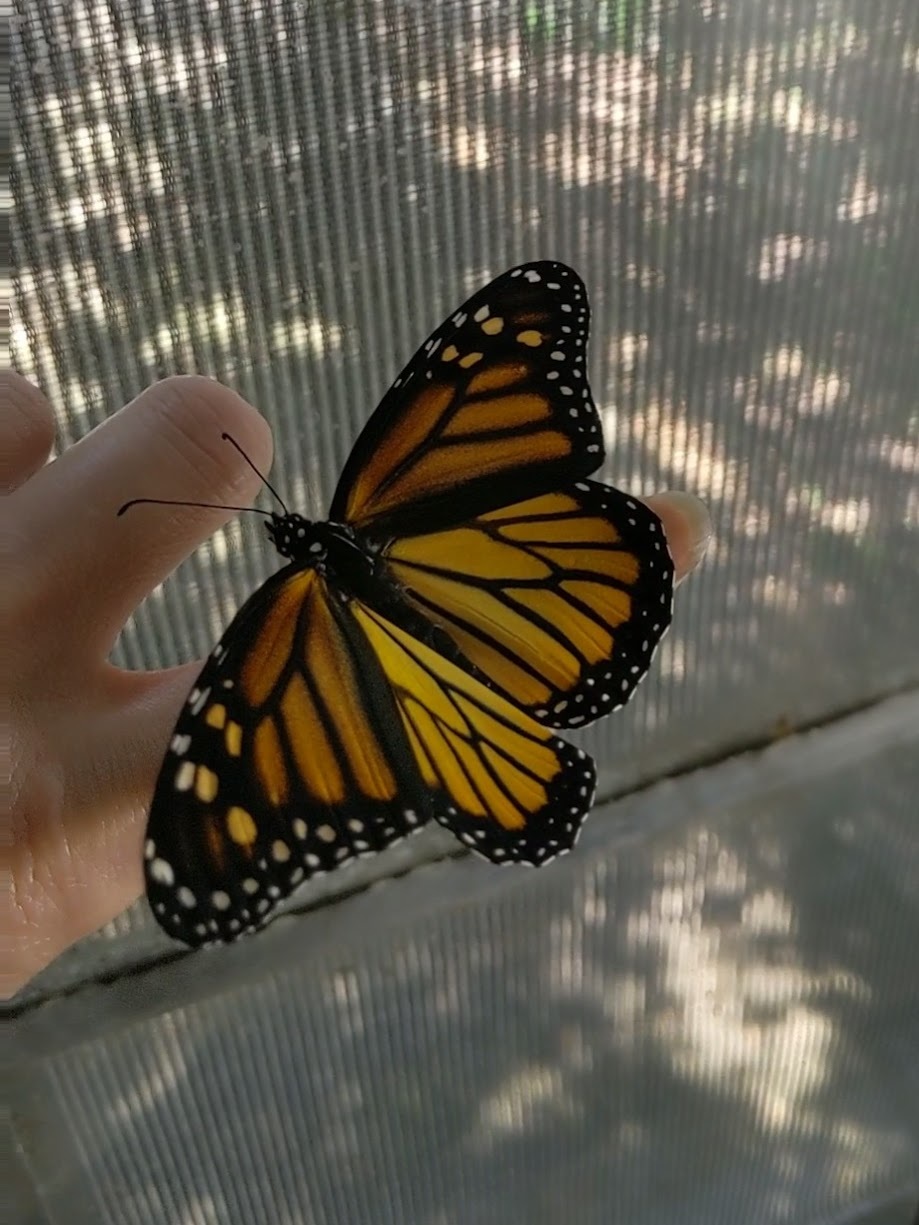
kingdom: Animalia
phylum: Arthropoda
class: Insecta
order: Lepidoptera
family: Nymphalidae
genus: Danaus
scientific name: Danaus plexippus
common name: Monarch
